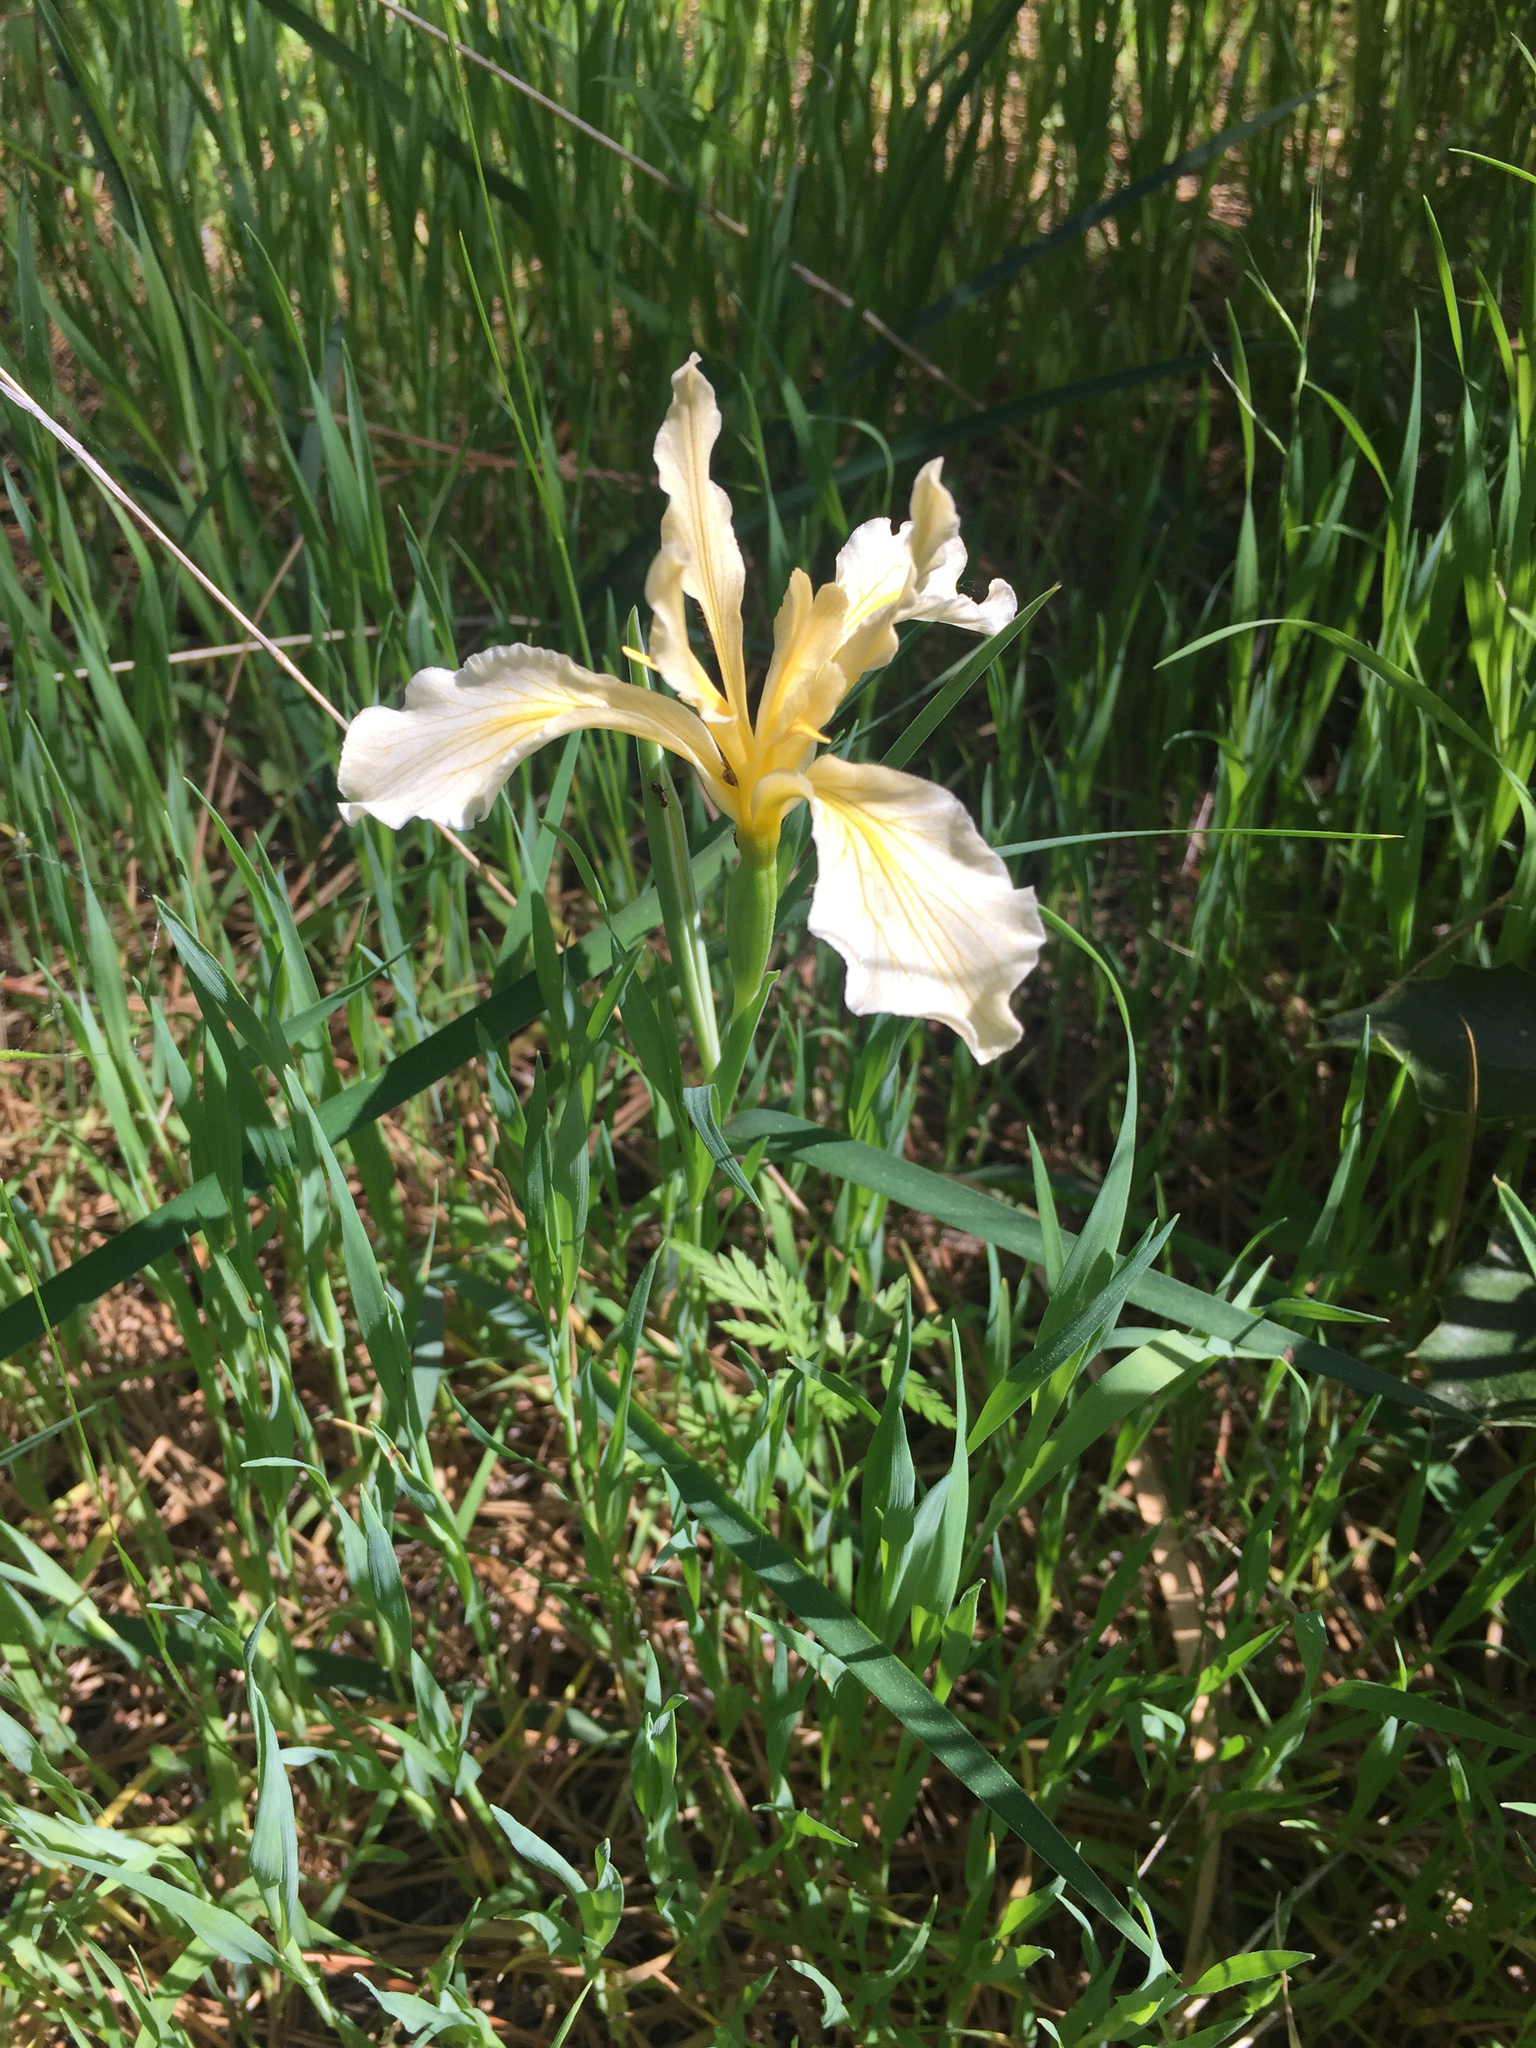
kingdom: Plantae
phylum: Tracheophyta
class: Liliopsida
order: Asparagales
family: Iridaceae
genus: Iris
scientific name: Iris hartwegii
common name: Sierra iris
